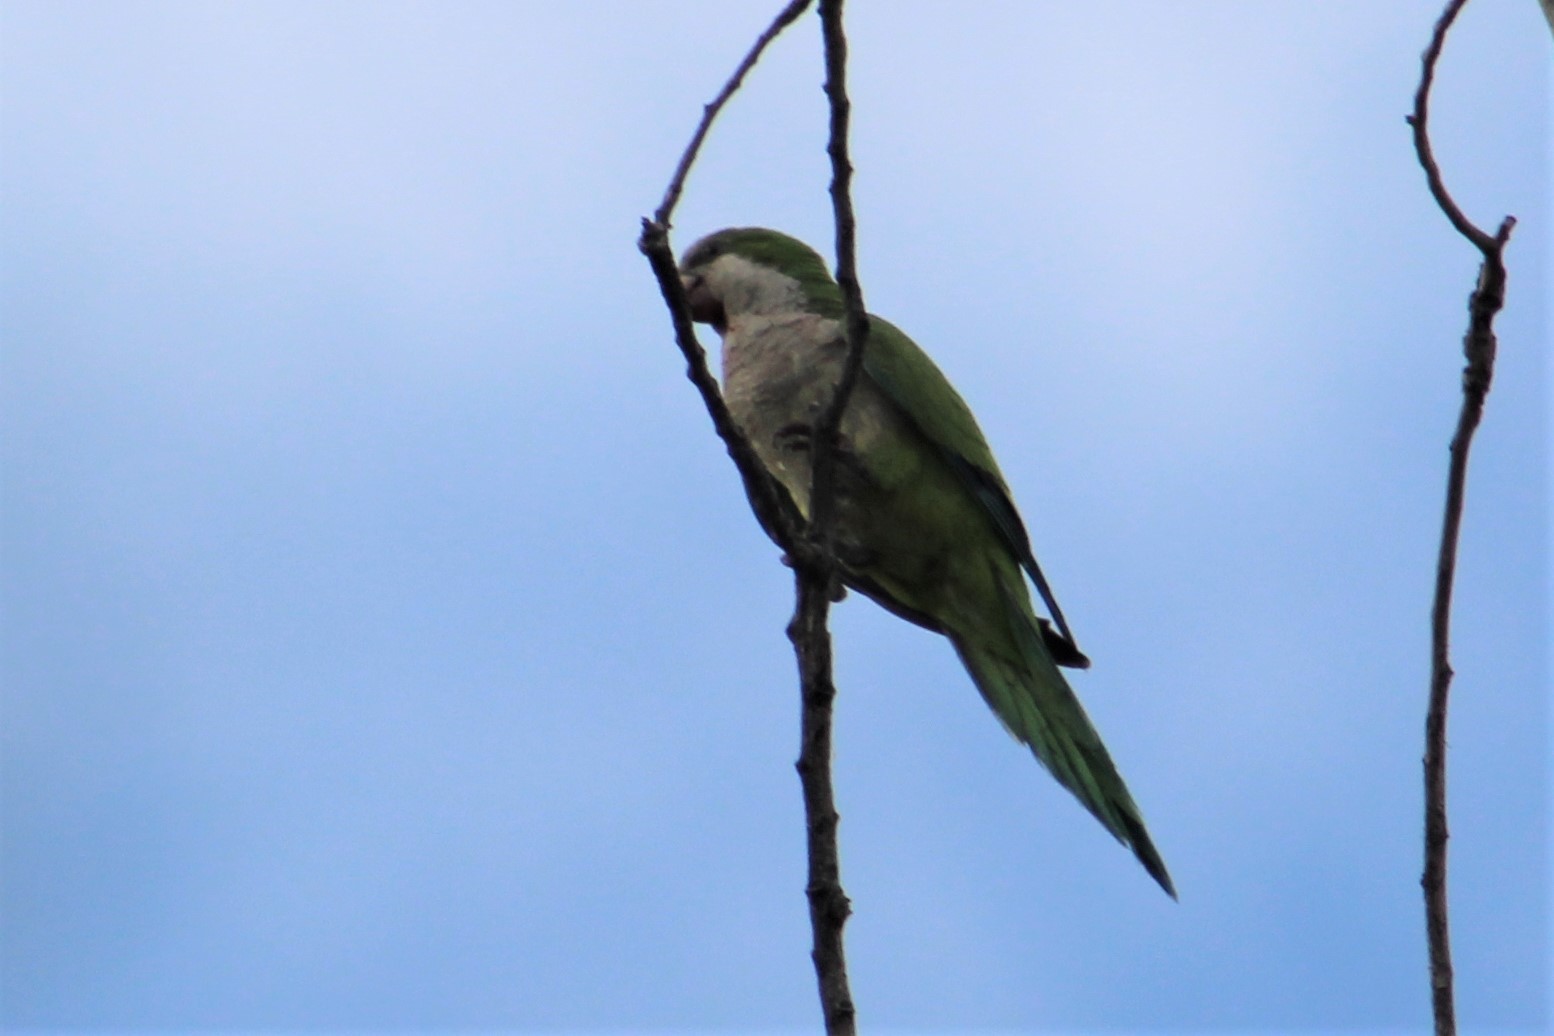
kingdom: Animalia
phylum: Chordata
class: Aves
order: Psittaciformes
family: Psittacidae
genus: Myiopsitta
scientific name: Myiopsitta monachus
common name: Monk parakeet
